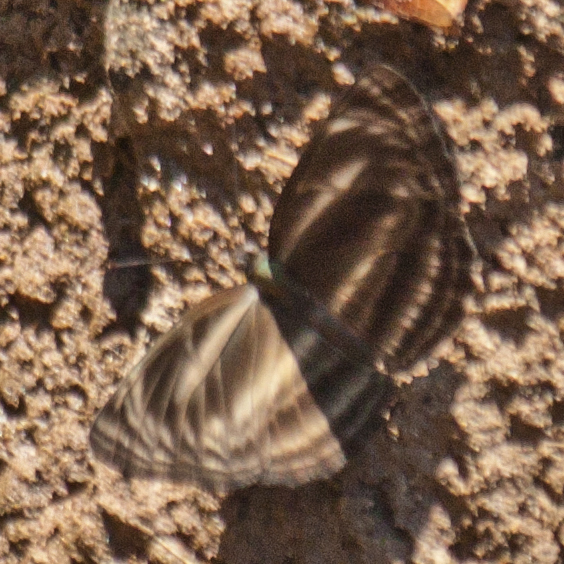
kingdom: Animalia
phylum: Arthropoda
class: Insecta
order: Lepidoptera
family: Nymphalidae
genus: Neptis
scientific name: Neptis ilira
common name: Dark dingy sailor
